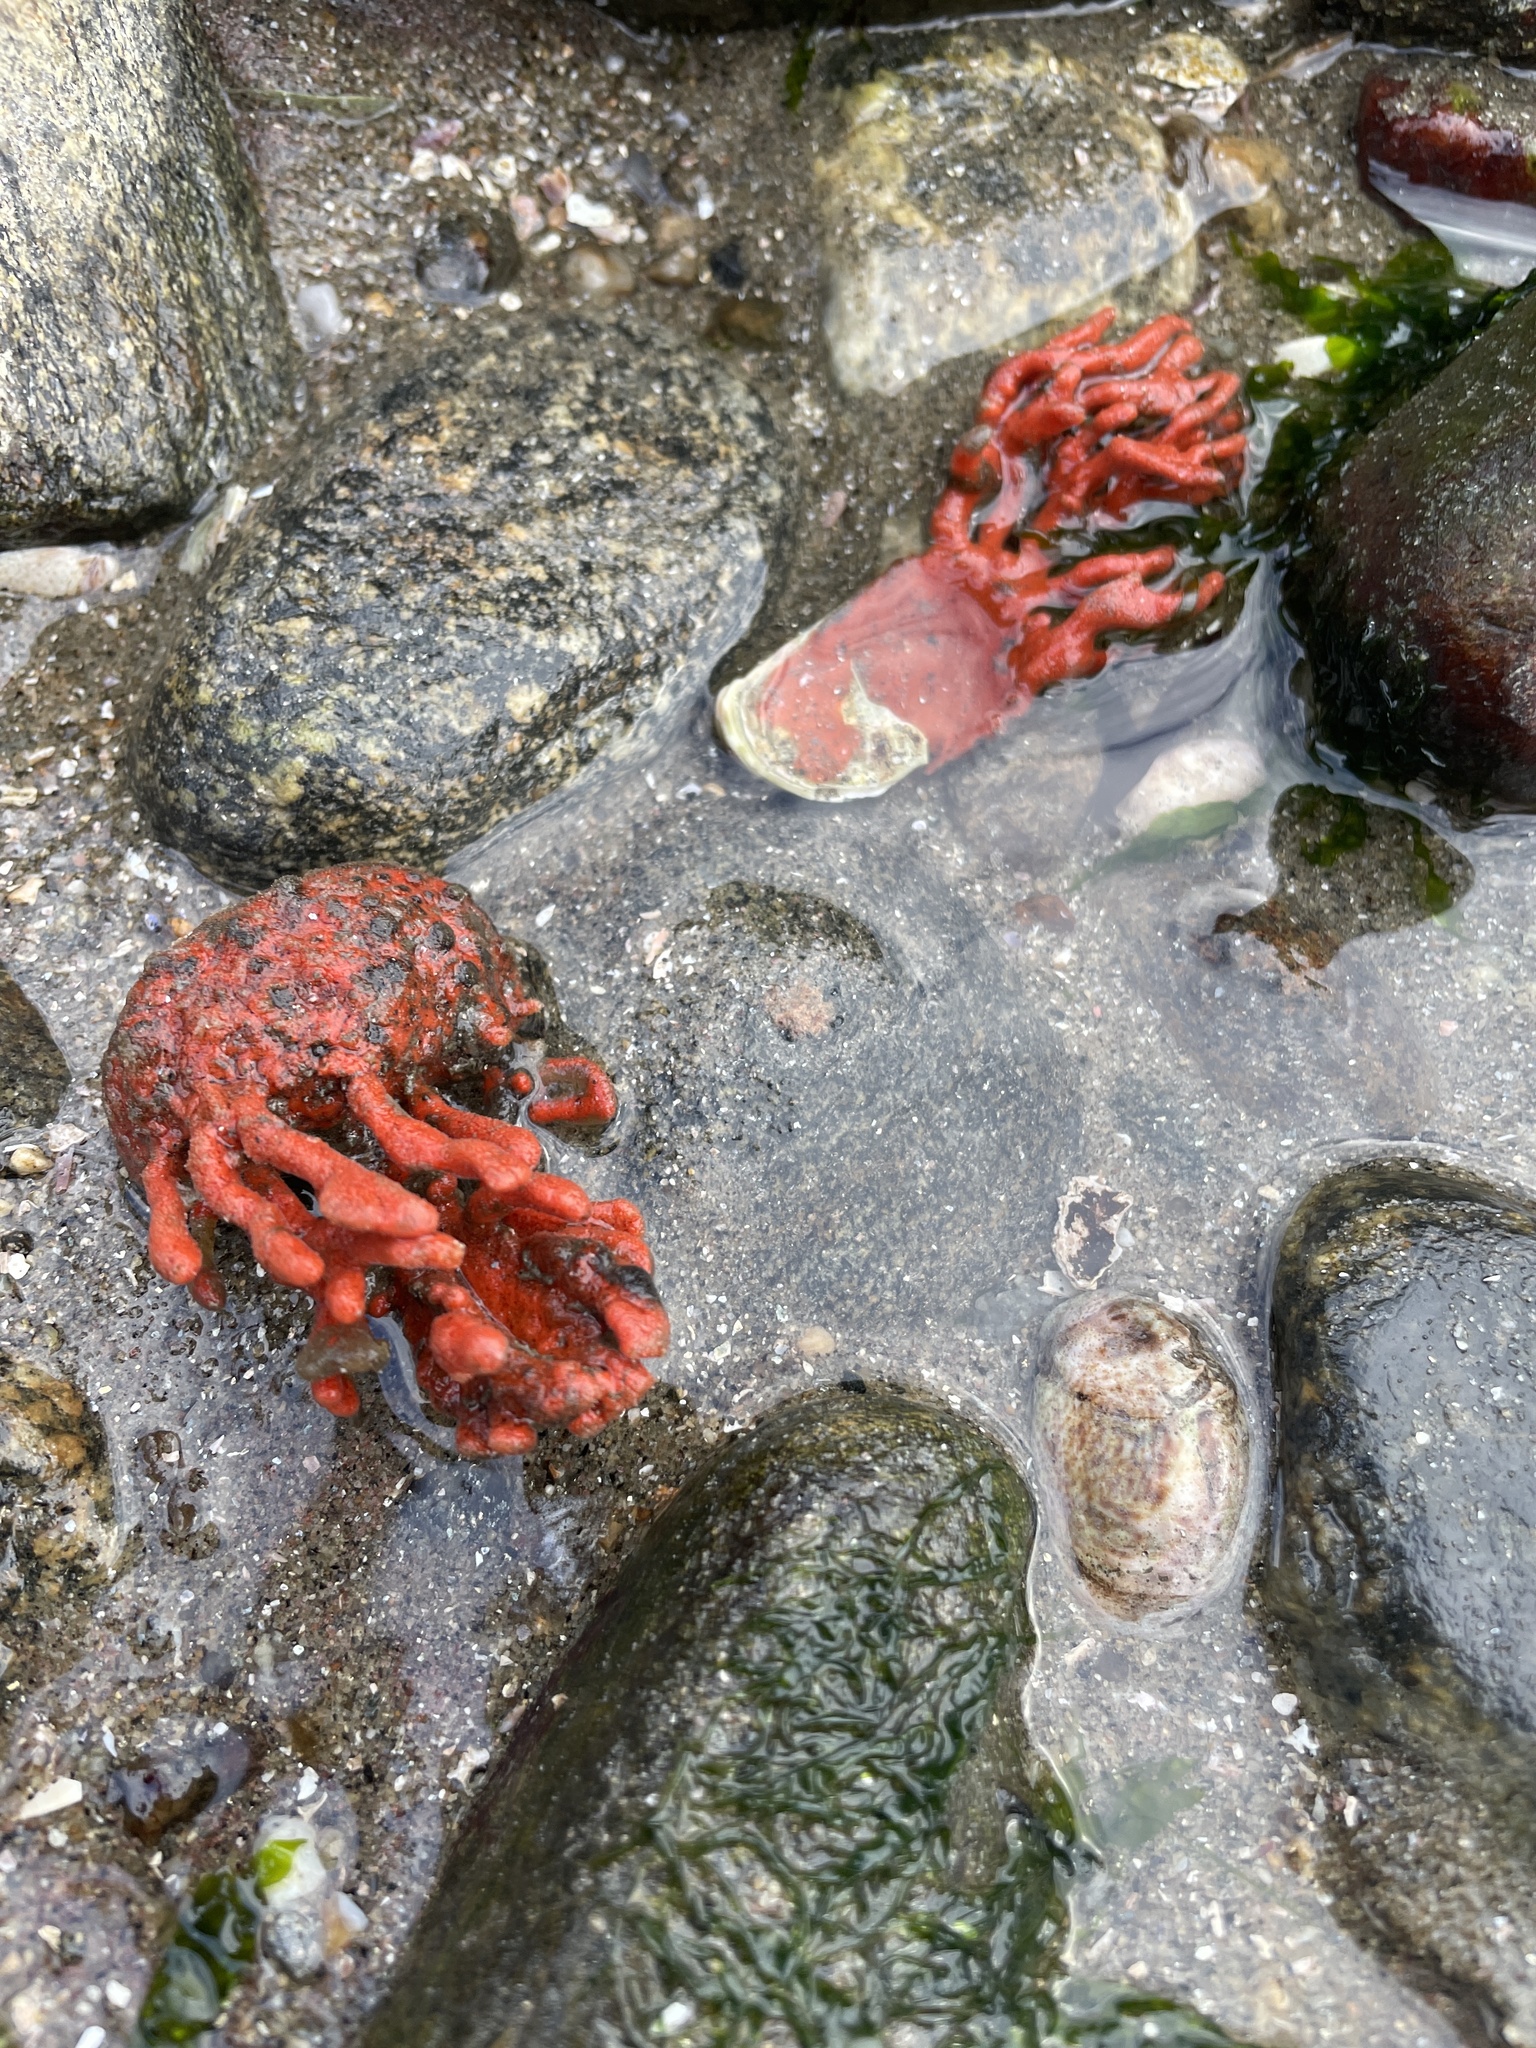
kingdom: Animalia
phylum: Porifera
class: Demospongiae
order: Poecilosclerida
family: Microcionidae
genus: Clathria
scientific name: Clathria prolifera
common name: Red beard sponge
